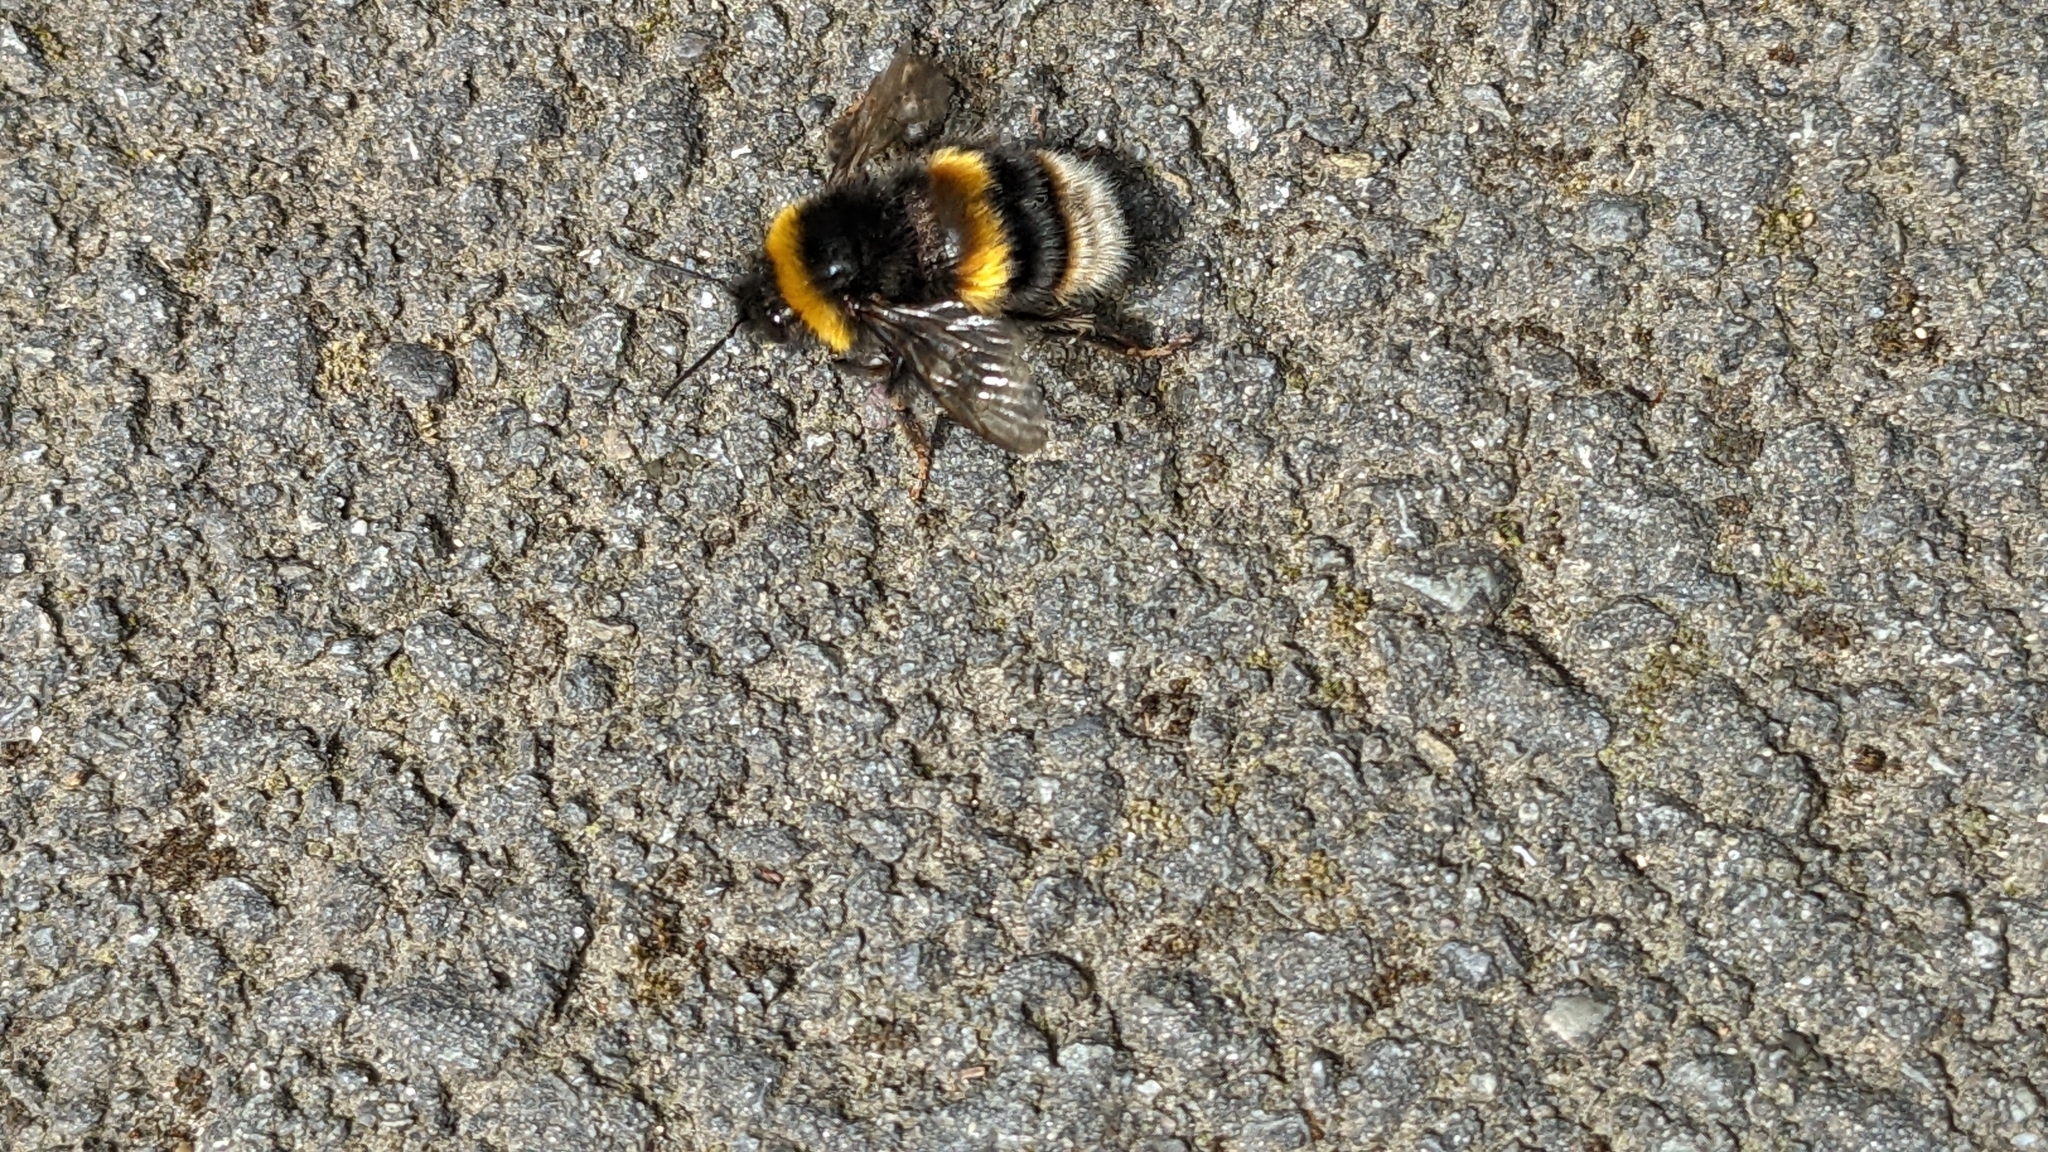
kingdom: Animalia
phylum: Arthropoda
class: Insecta
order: Hymenoptera
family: Apidae
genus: Bombus
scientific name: Bombus terrestris
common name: Buff-tailed bumblebee
